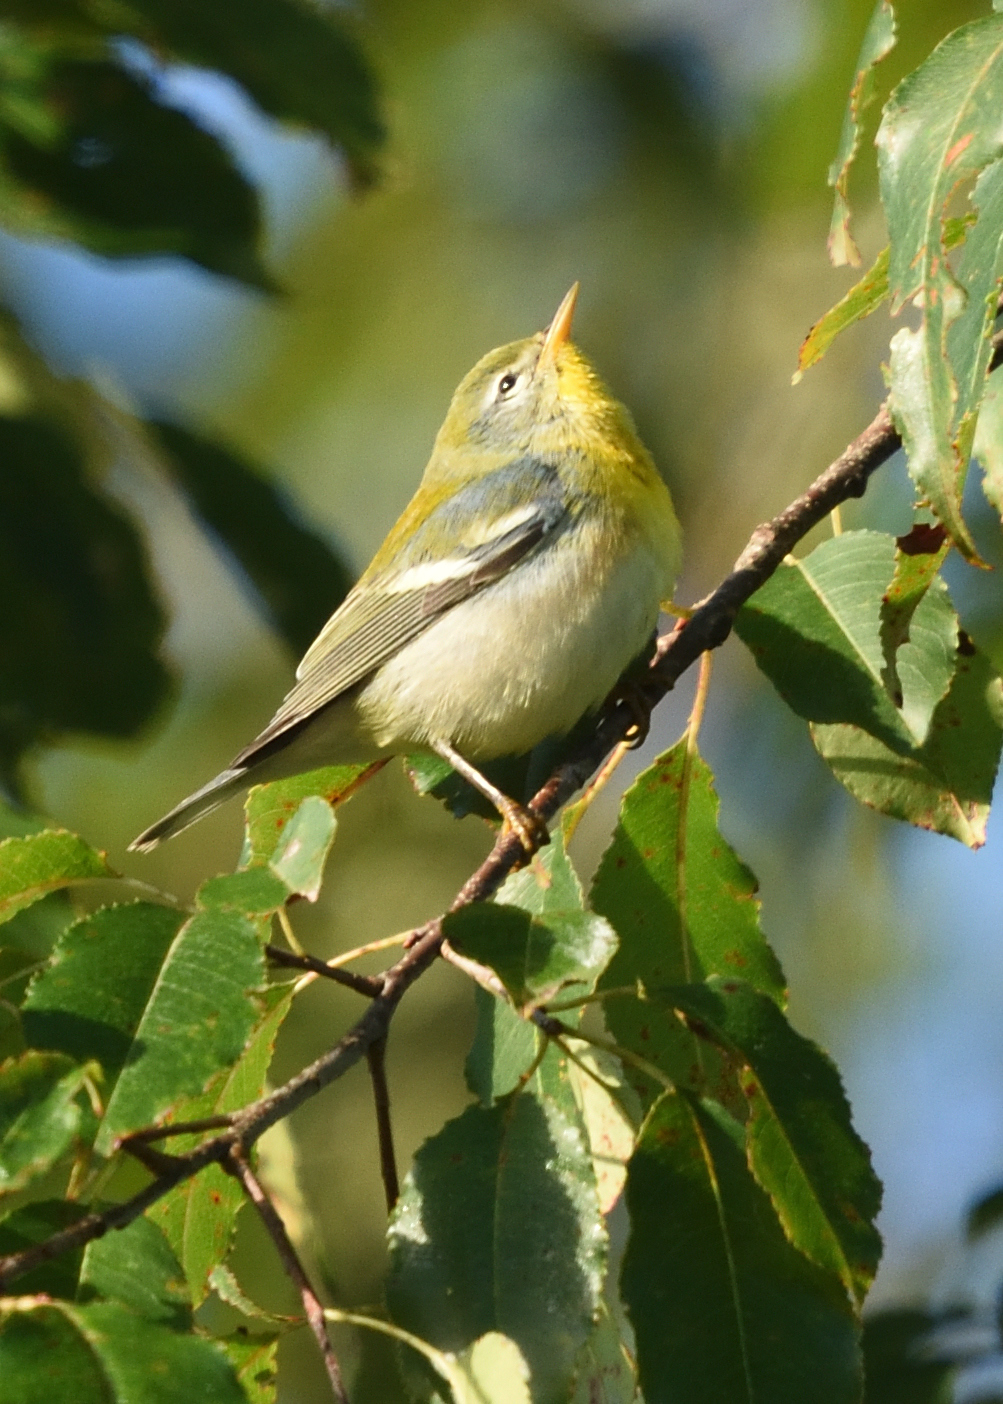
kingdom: Animalia
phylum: Chordata
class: Aves
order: Passeriformes
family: Parulidae
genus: Setophaga
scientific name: Setophaga americana
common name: Northern parula
